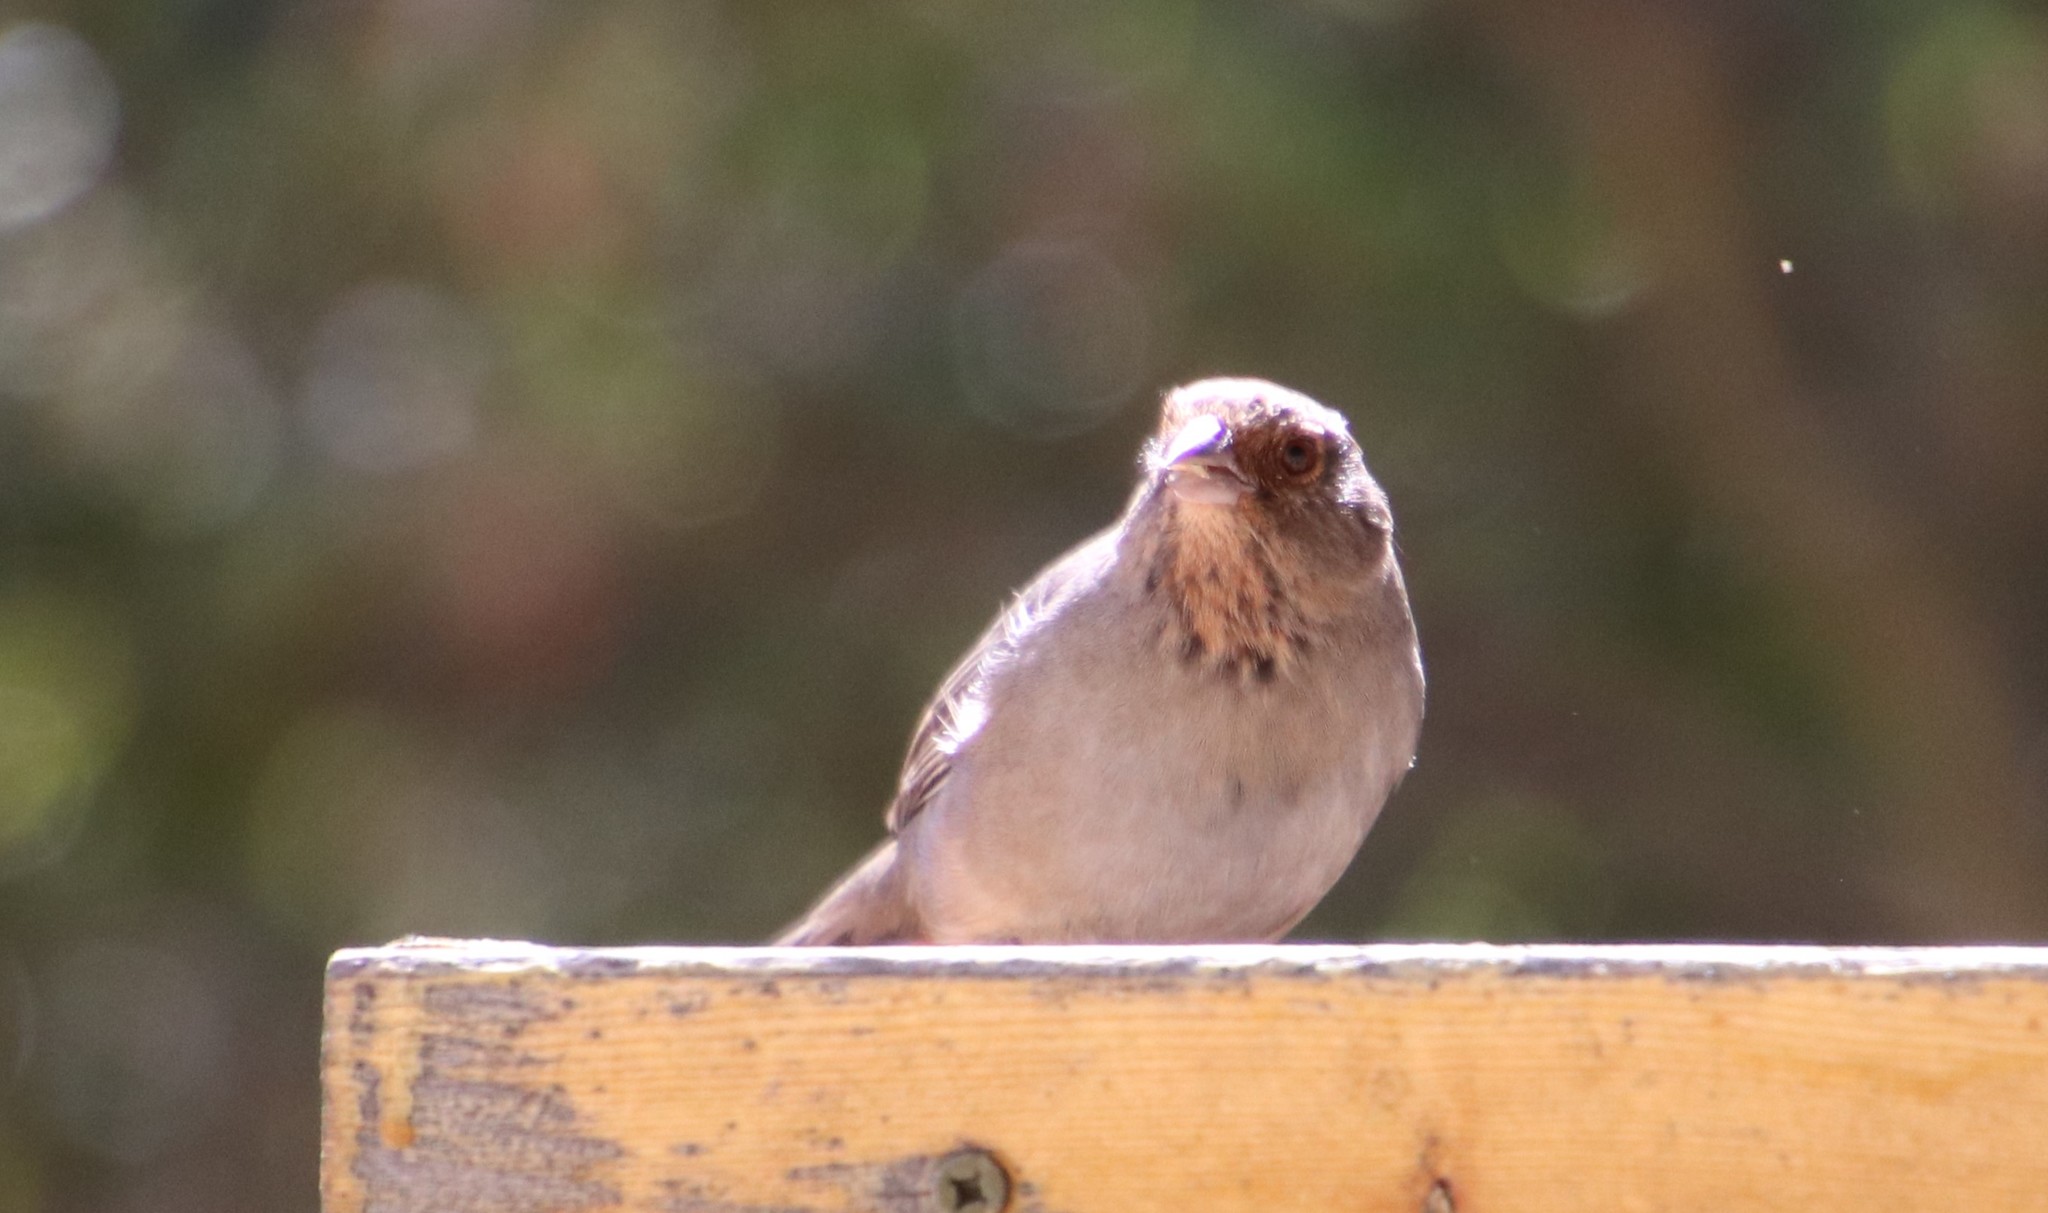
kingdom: Animalia
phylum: Chordata
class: Aves
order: Passeriformes
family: Passerellidae
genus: Melozone
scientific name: Melozone crissalis
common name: California towhee
